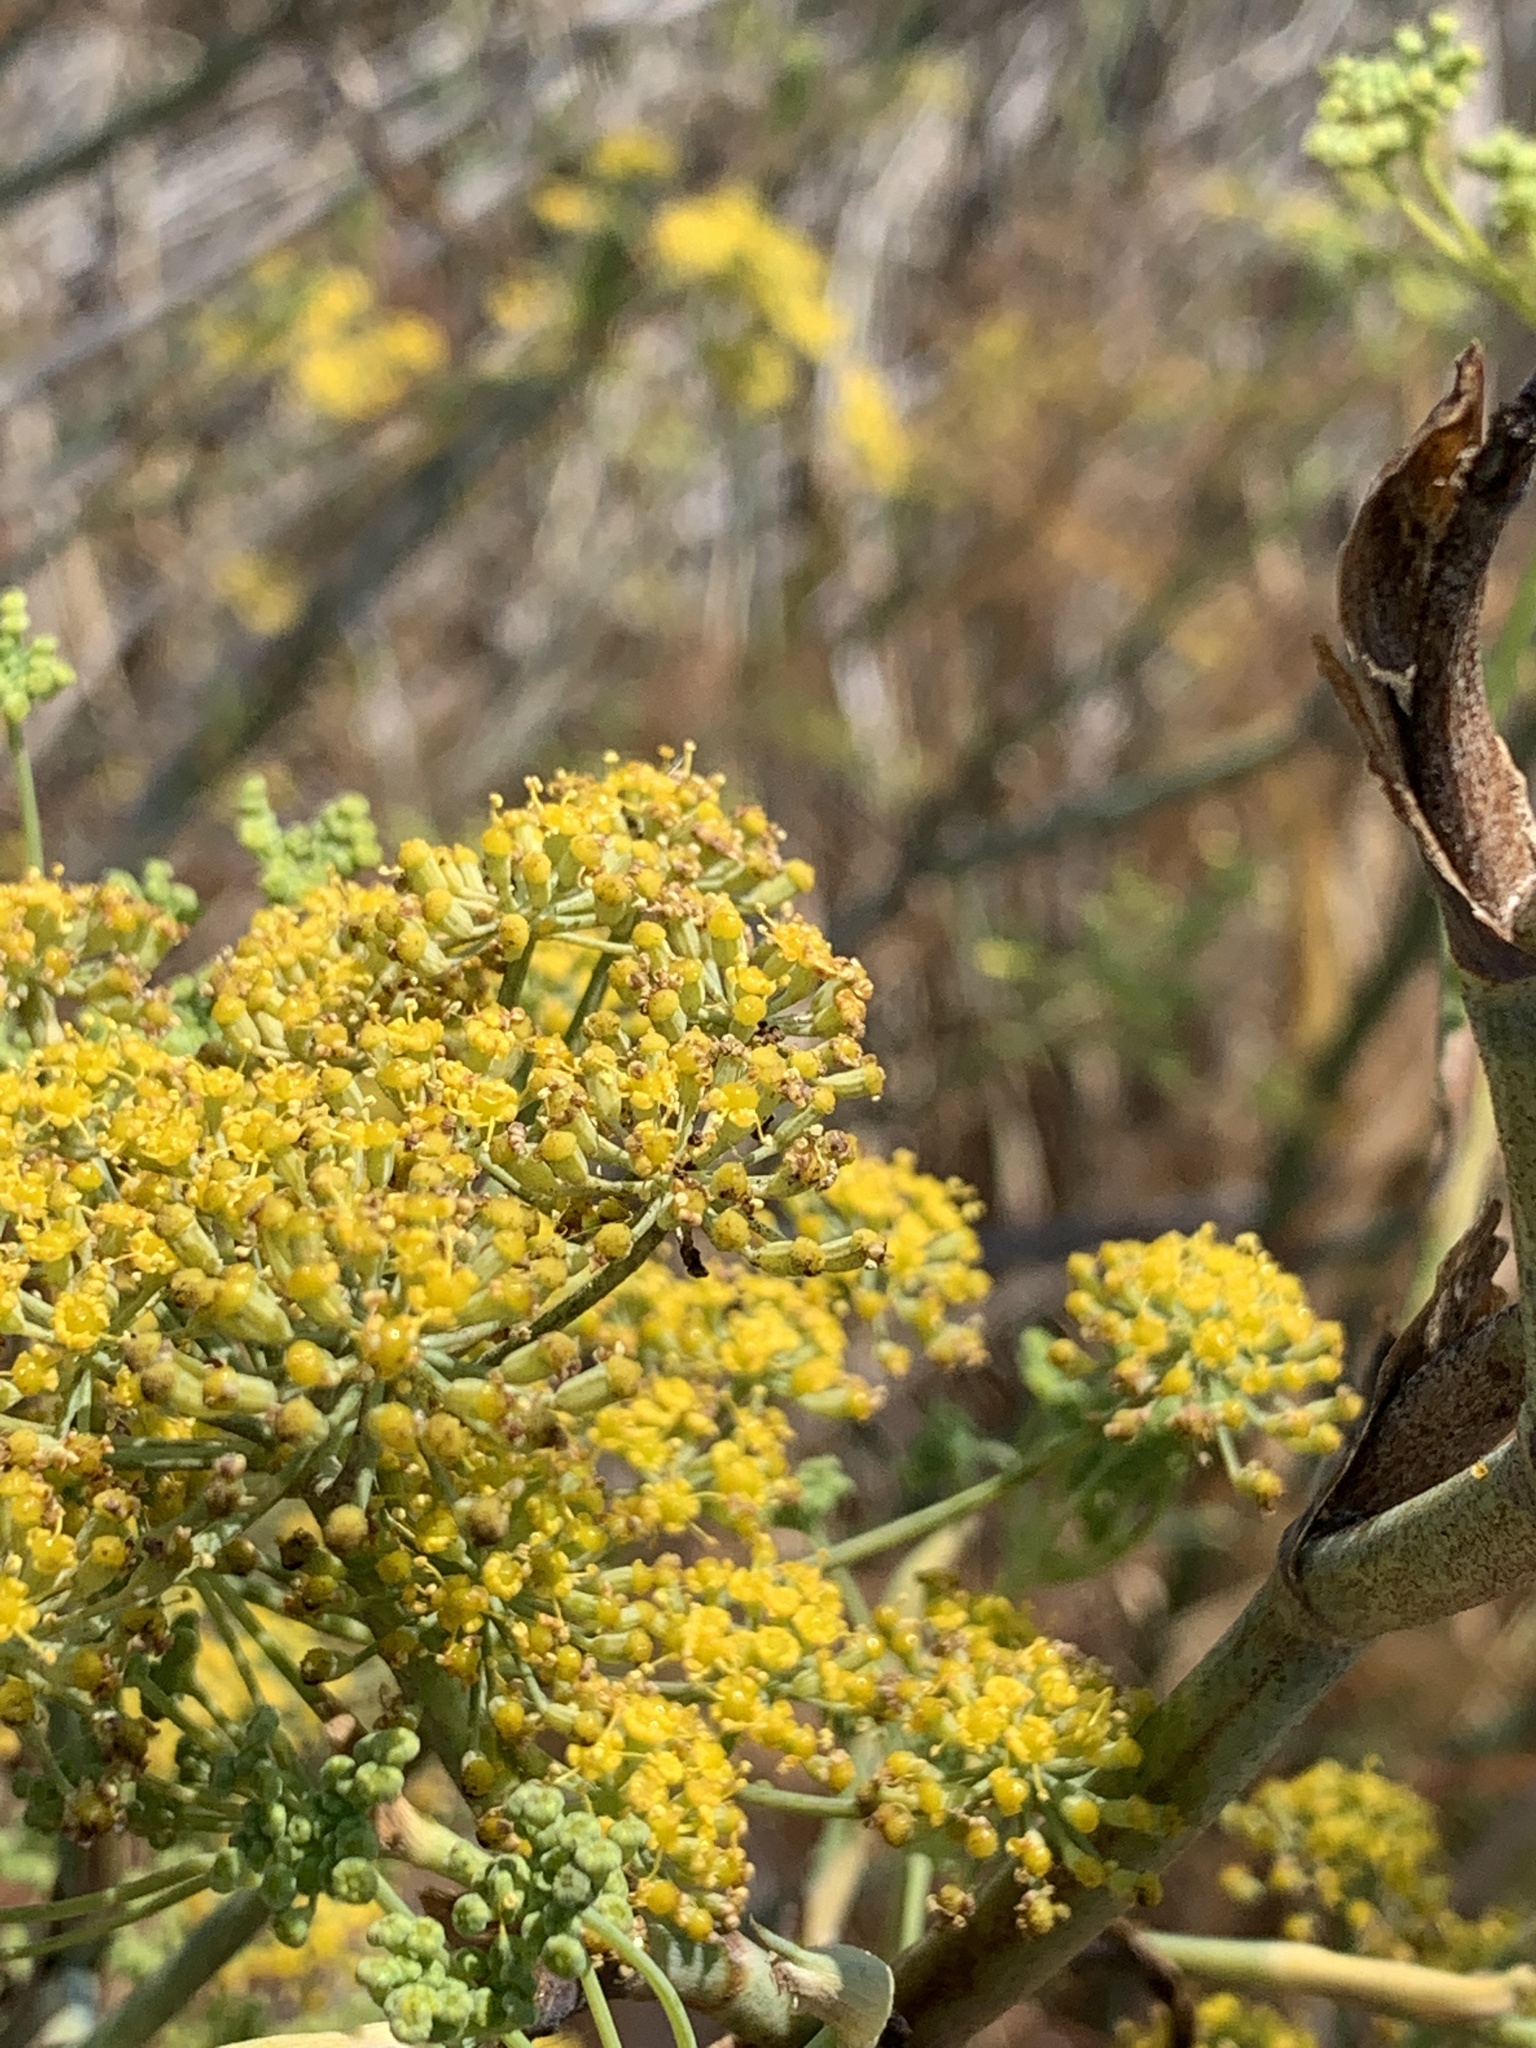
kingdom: Plantae
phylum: Tracheophyta
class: Magnoliopsida
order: Apiales
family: Apiaceae
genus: Foeniculum
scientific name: Foeniculum vulgare
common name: Fennel
